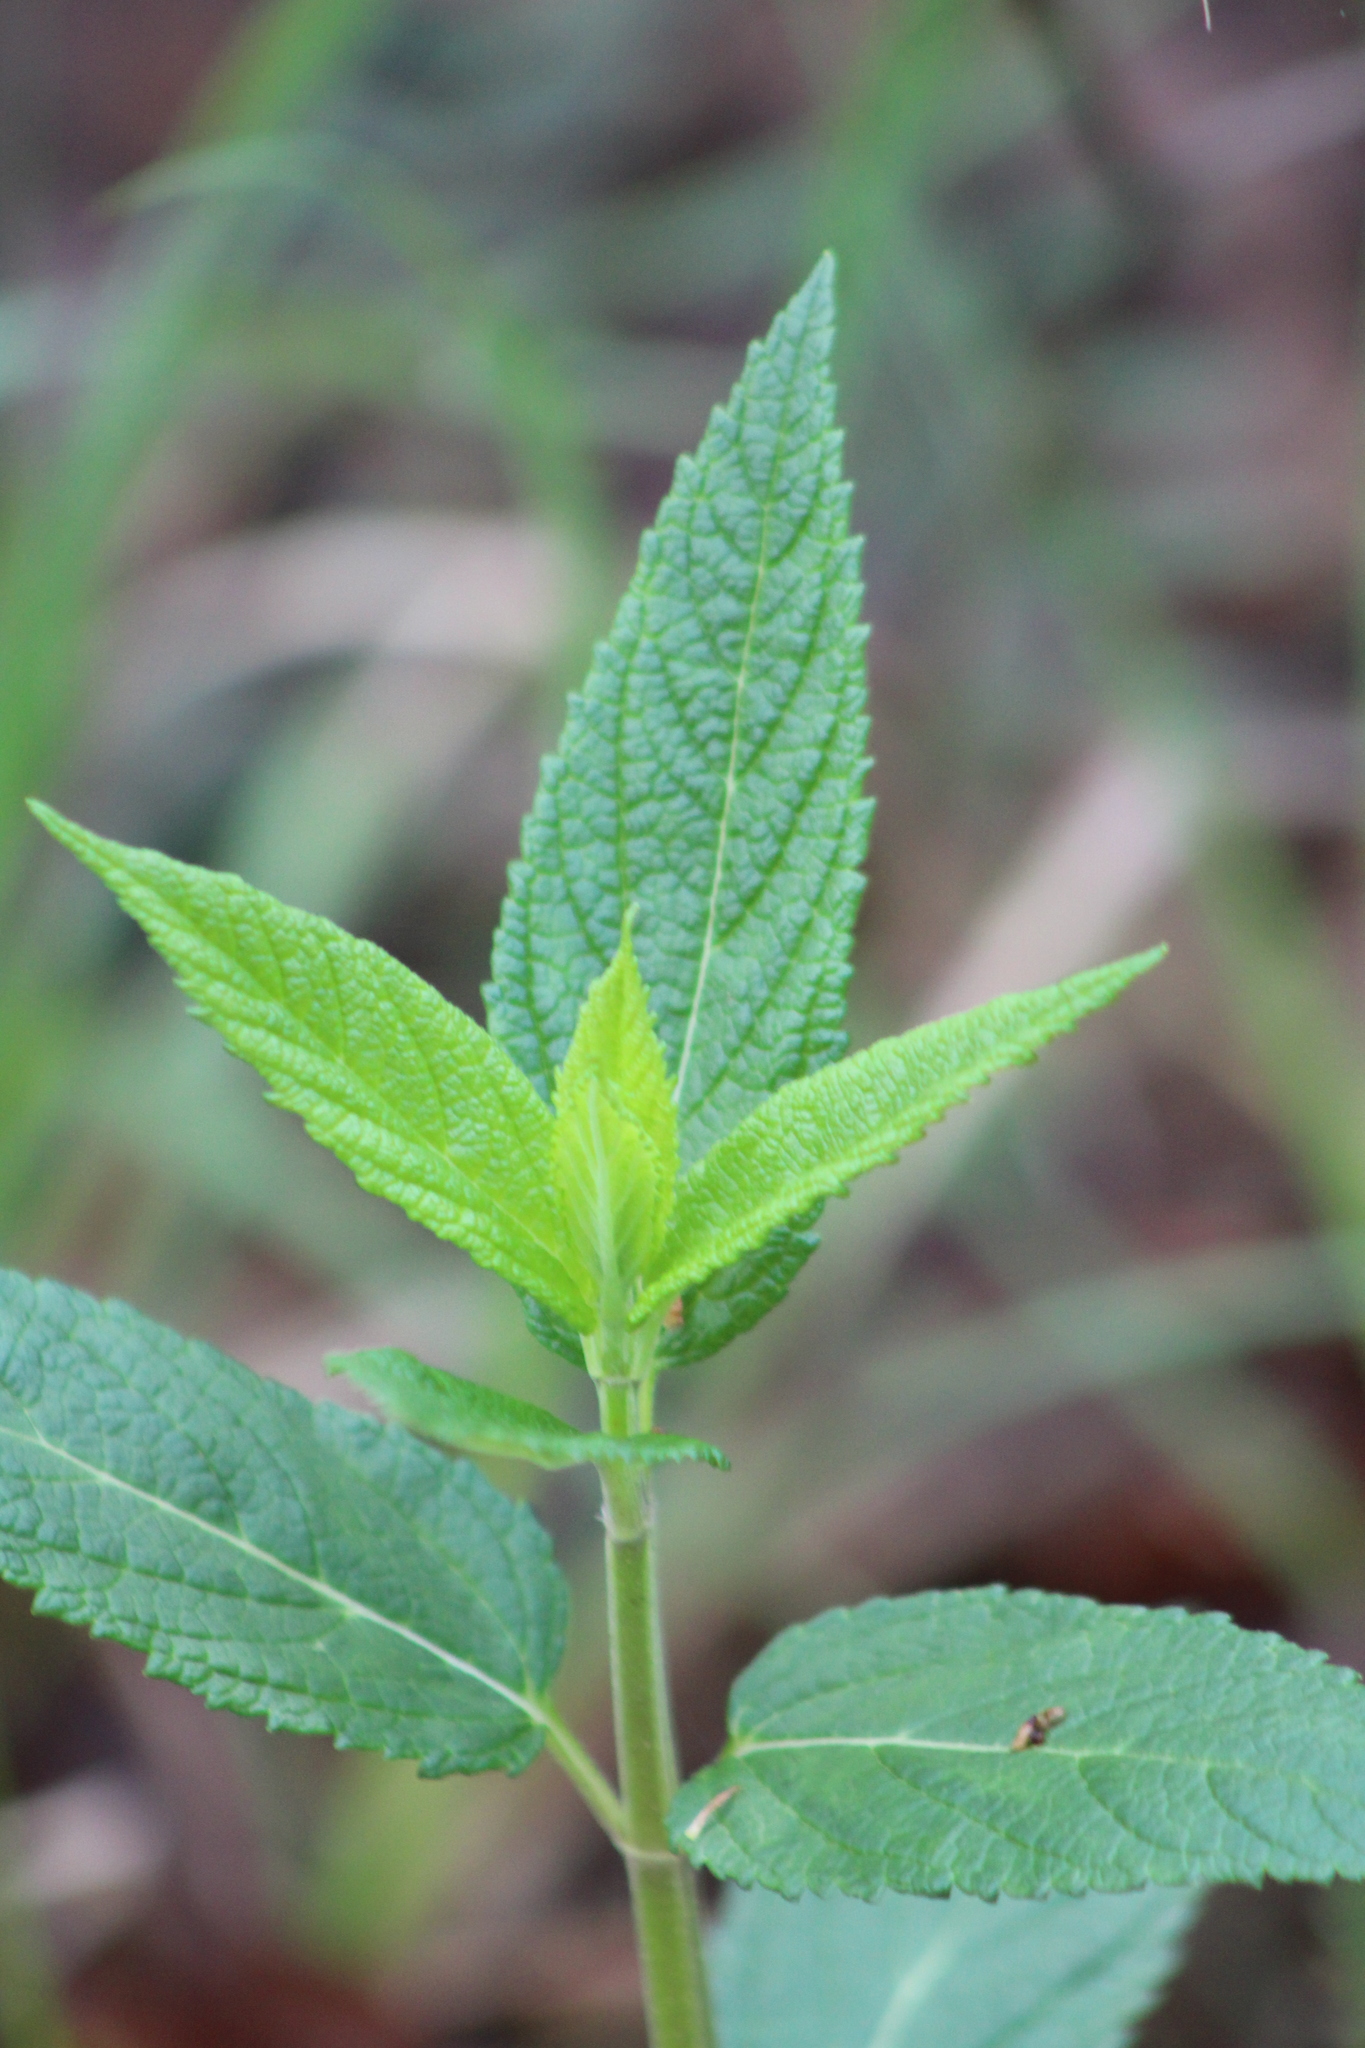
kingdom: Plantae
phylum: Tracheophyta
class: Magnoliopsida
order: Lamiales
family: Lamiaceae
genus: Teucrium
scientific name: Teucrium canadense
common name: American germander
